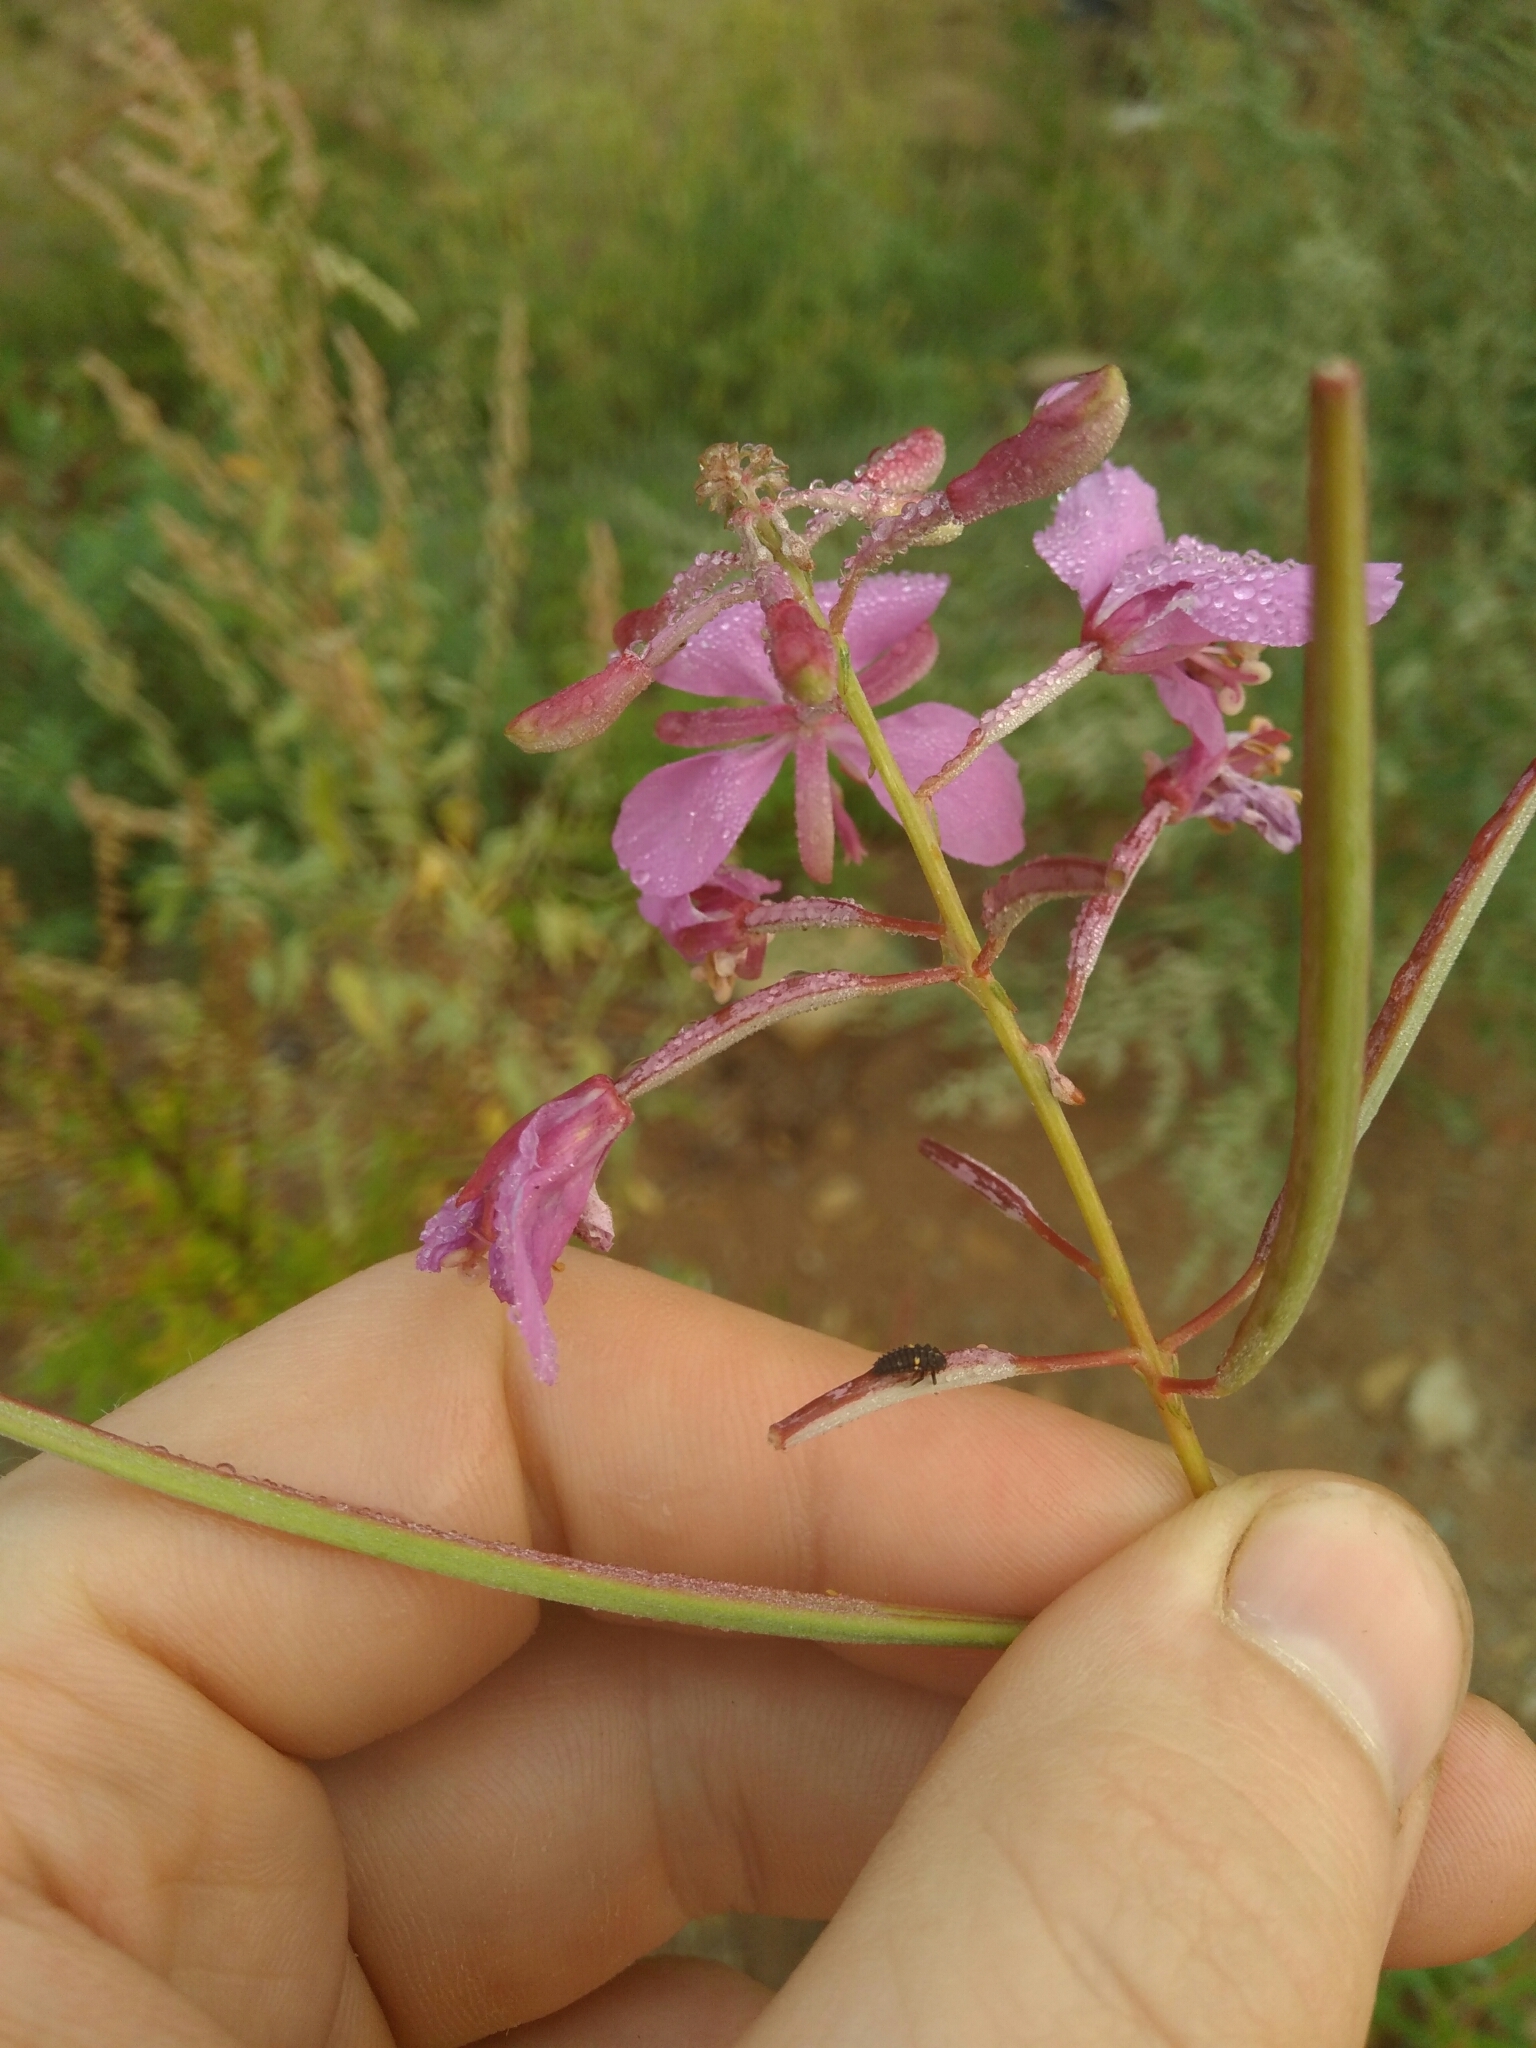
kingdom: Plantae
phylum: Tracheophyta
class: Magnoliopsida
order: Myrtales
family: Onagraceae
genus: Chamaenerion
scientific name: Chamaenerion angustifolium
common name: Fireweed
